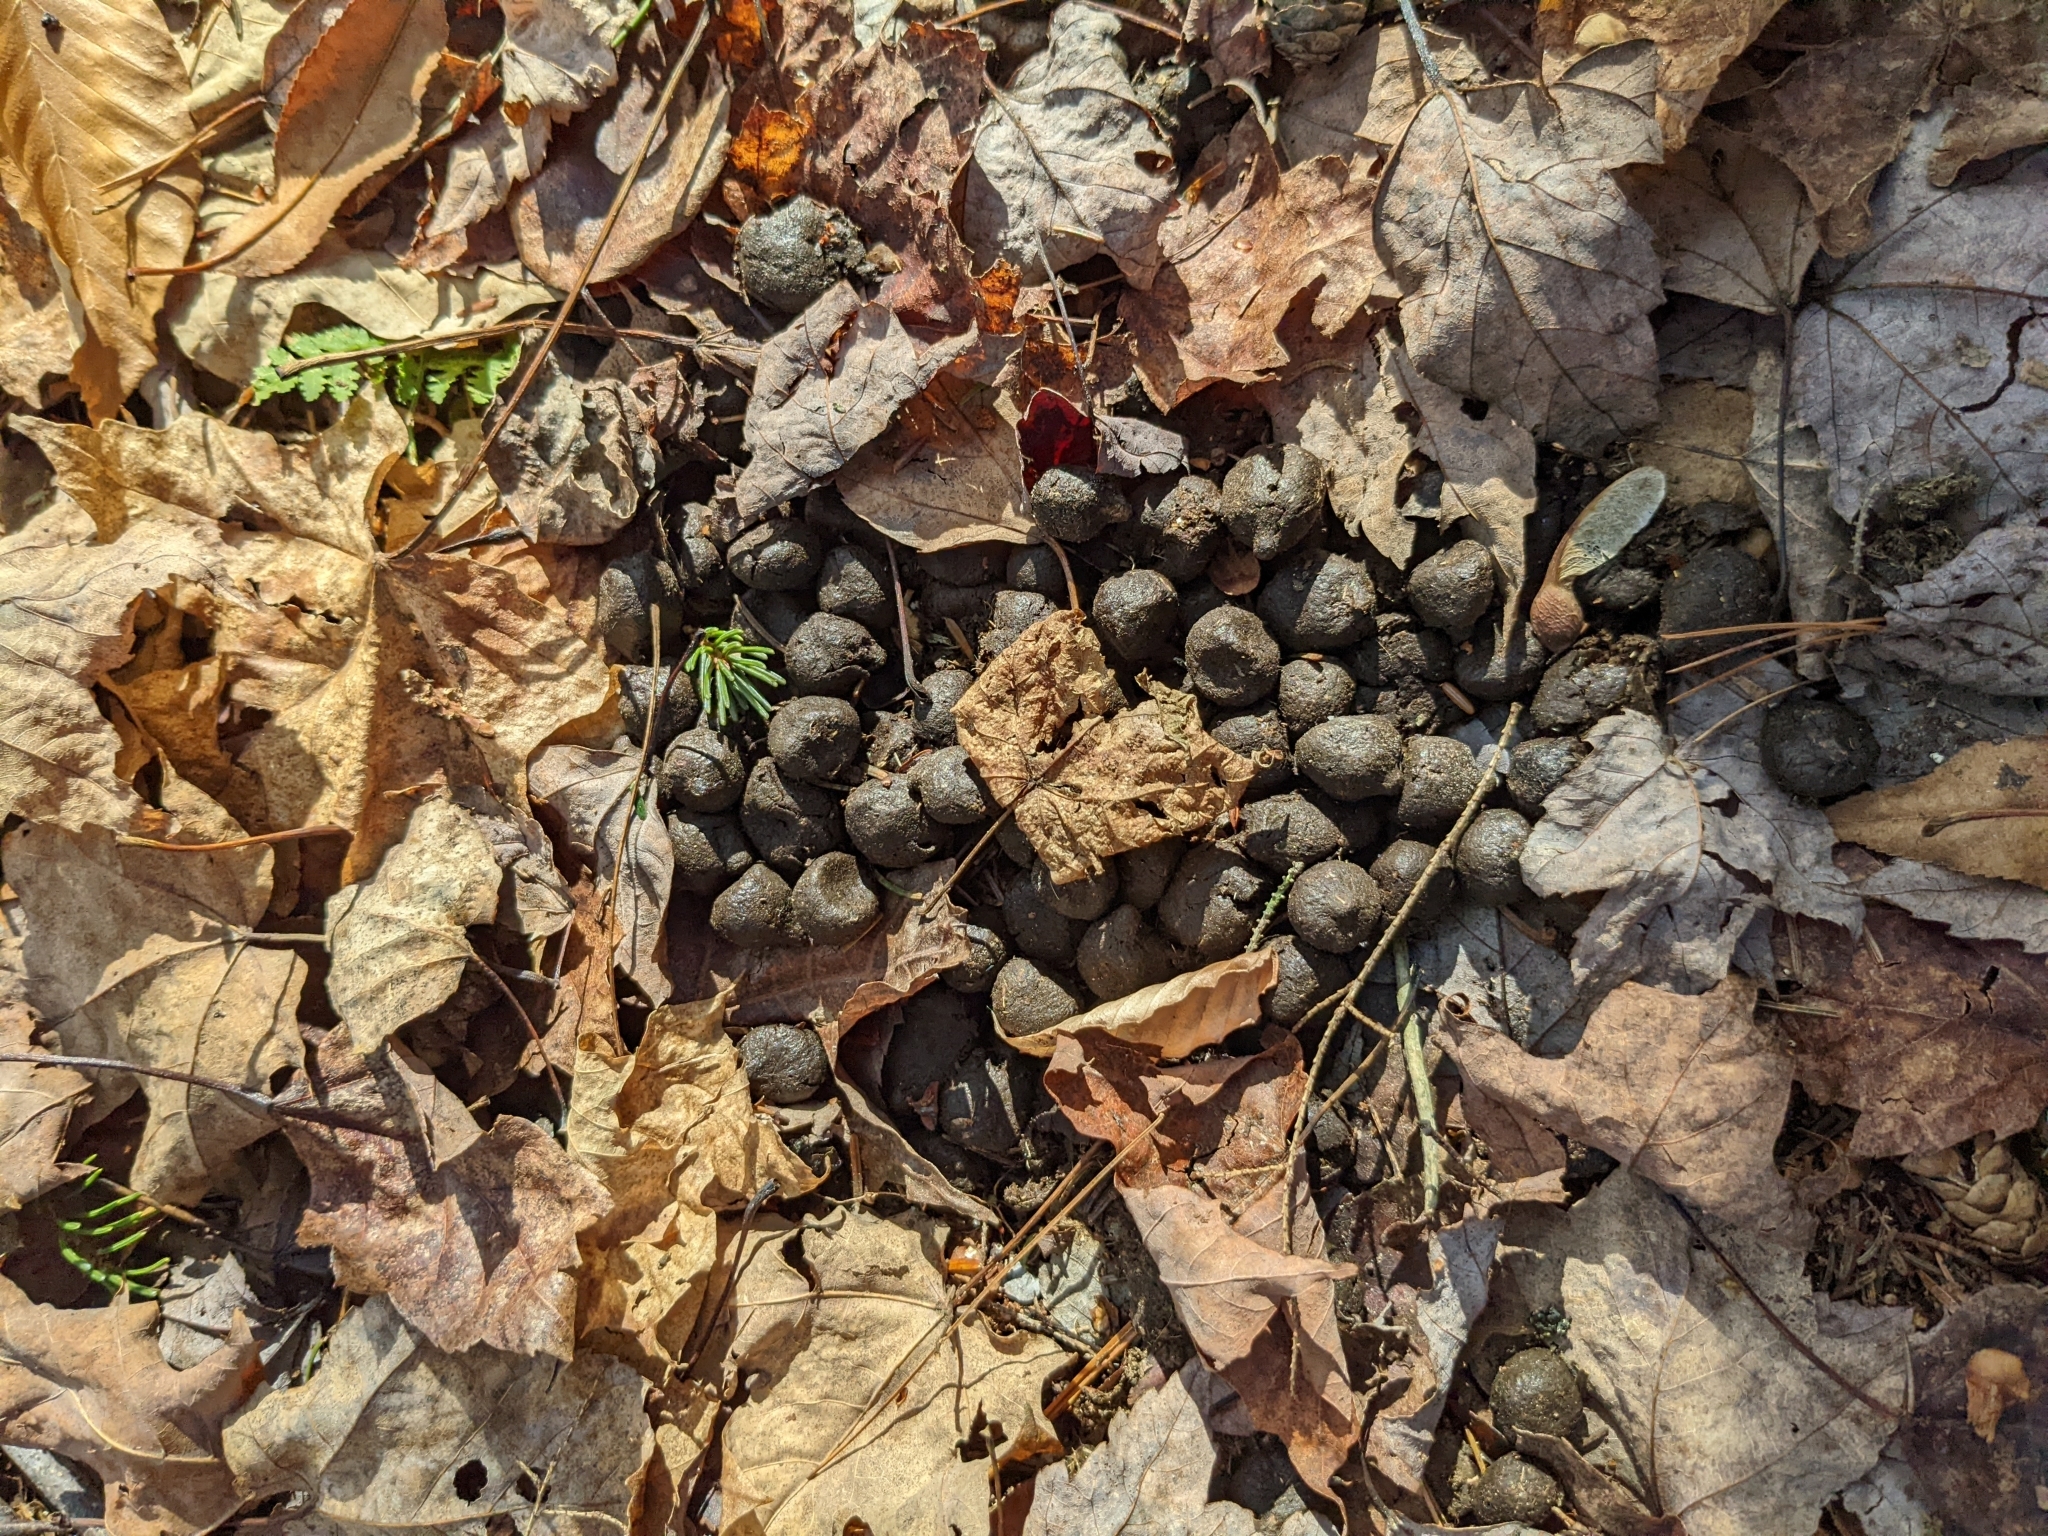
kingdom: Animalia
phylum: Chordata
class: Mammalia
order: Artiodactyla
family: Cervidae
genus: Odocoileus
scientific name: Odocoileus virginianus
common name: White-tailed deer
